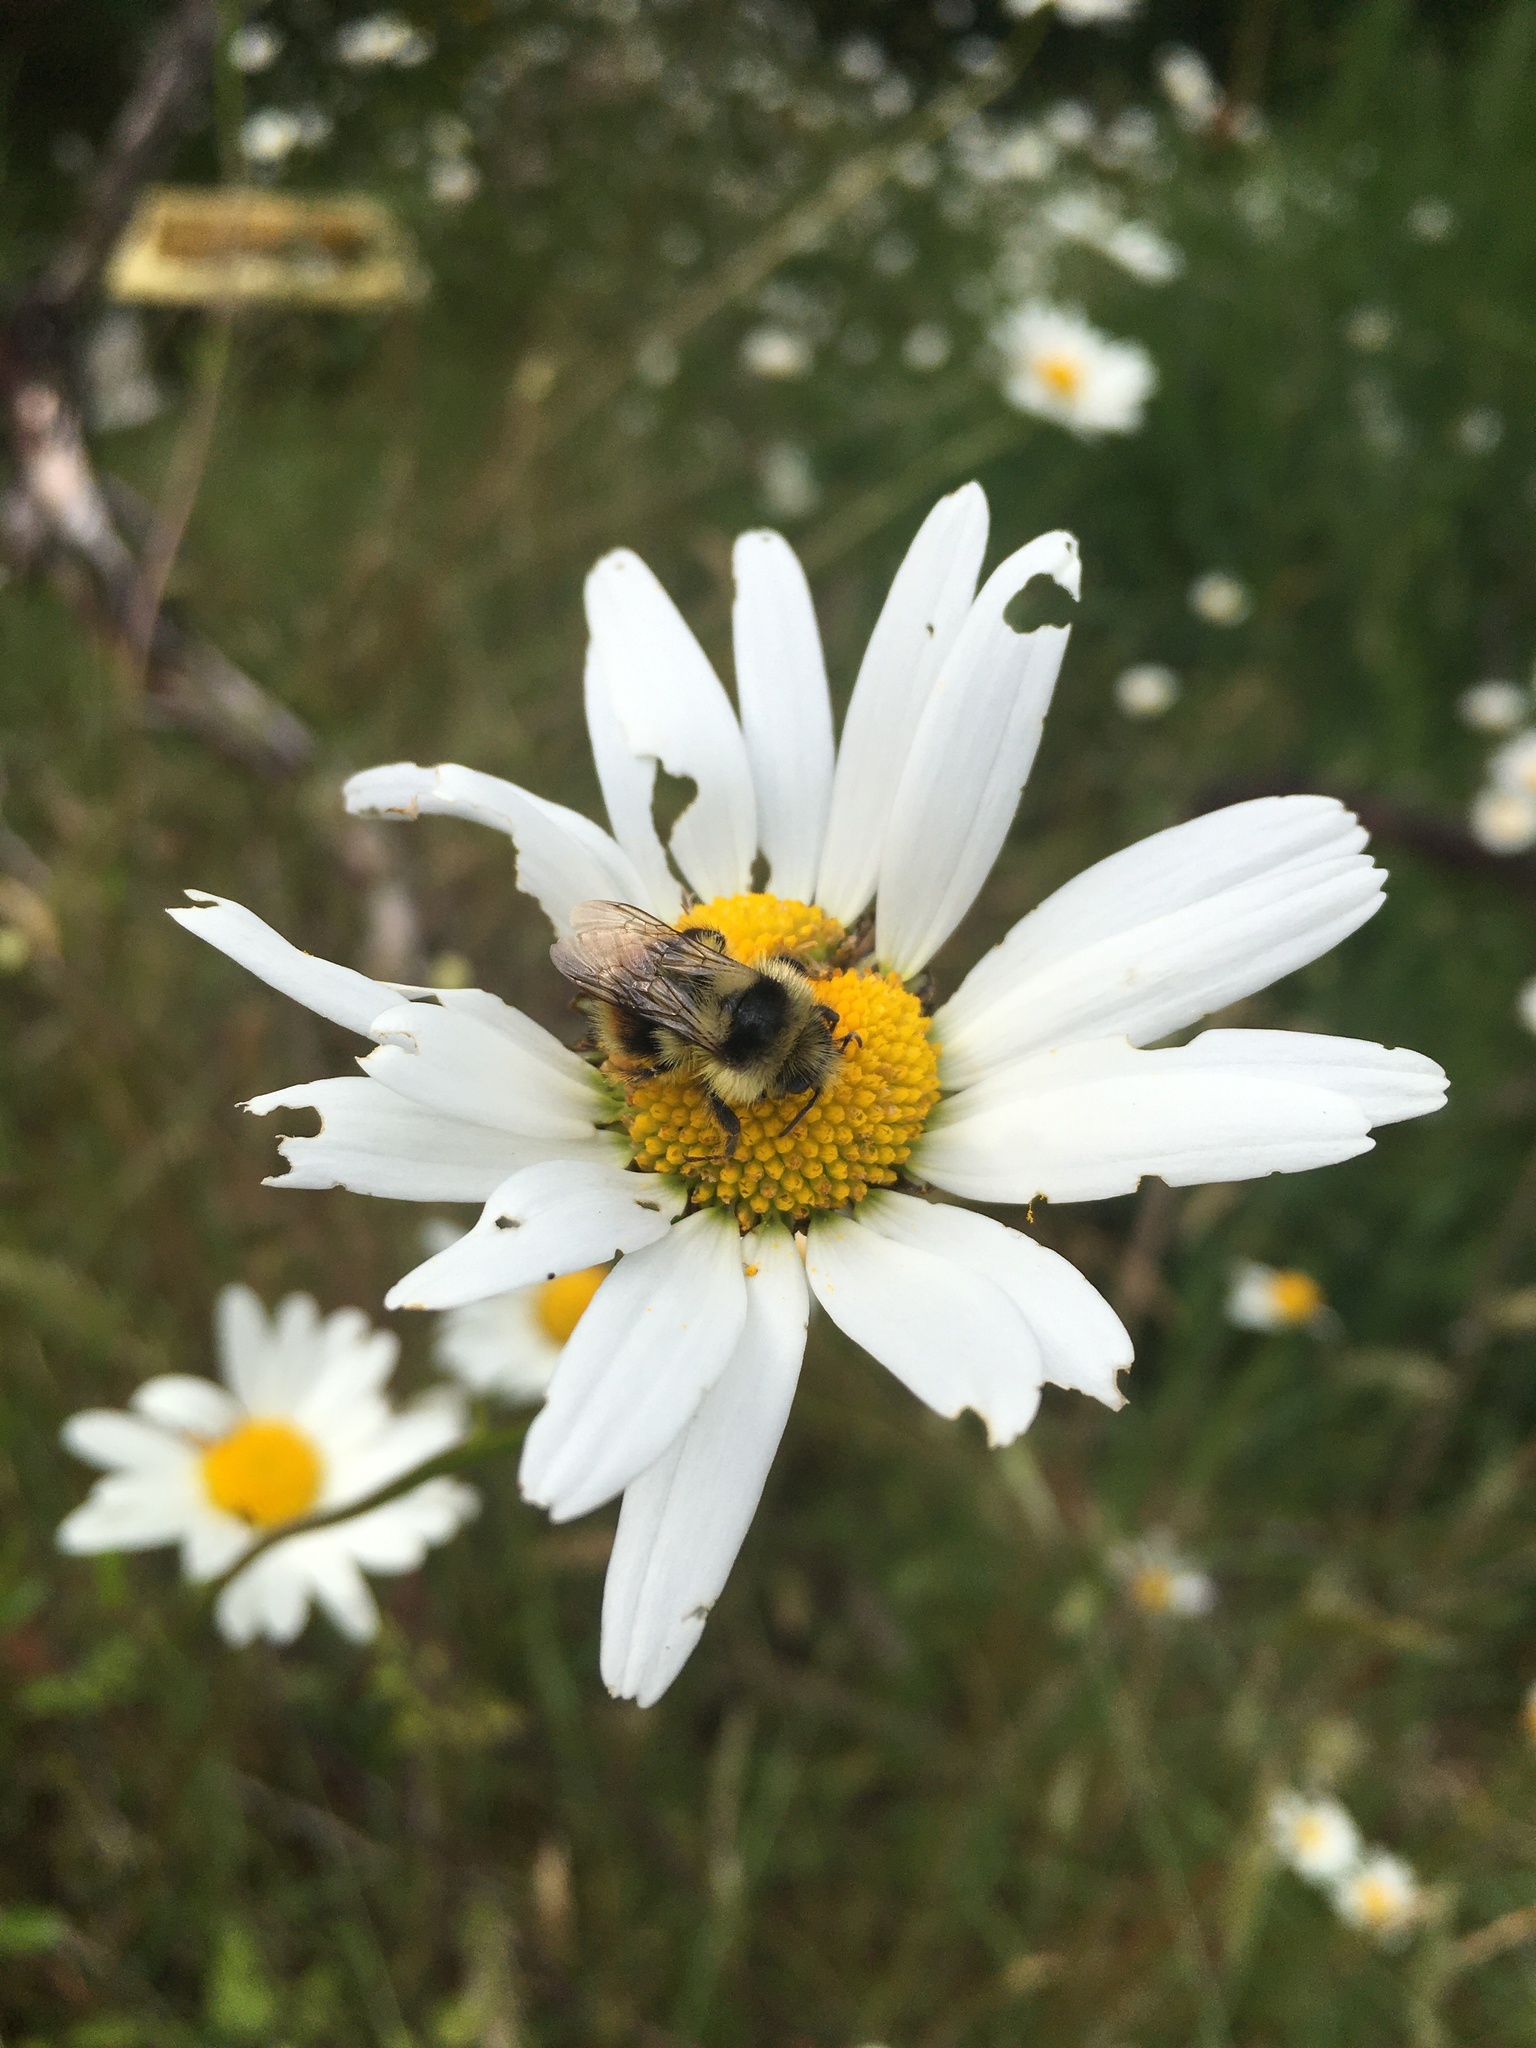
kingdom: Animalia
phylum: Arthropoda
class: Insecta
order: Hymenoptera
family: Apidae
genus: Bombus
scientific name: Bombus mixtus
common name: Fuzzy-horned bumble bee
